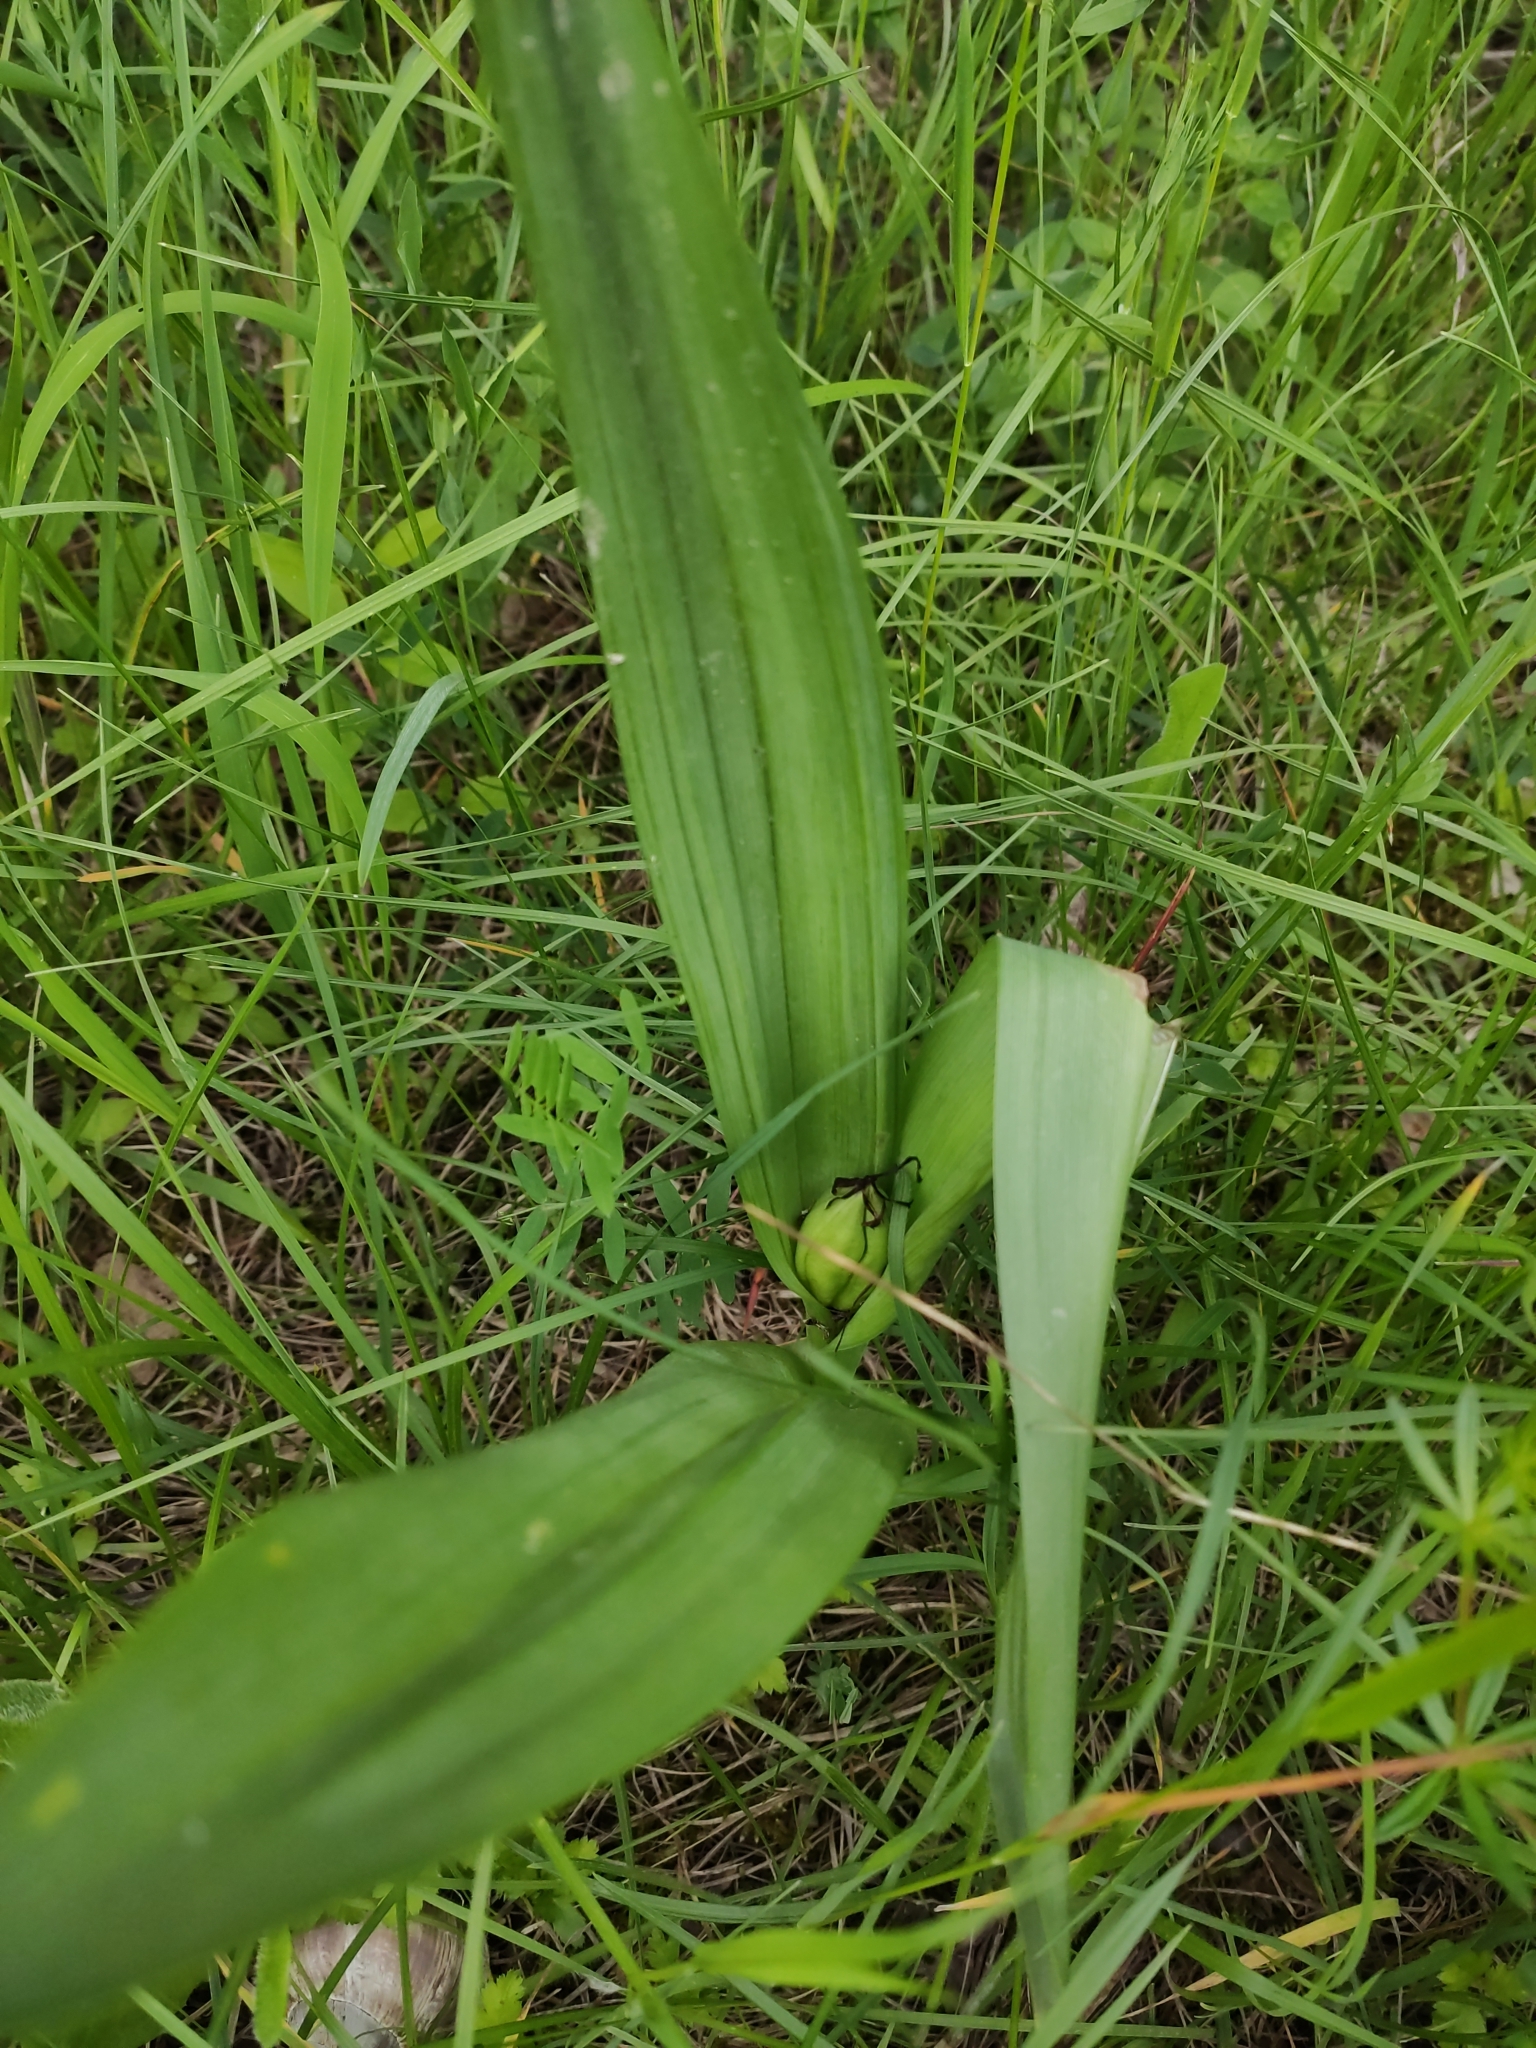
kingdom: Plantae
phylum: Tracheophyta
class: Liliopsida
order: Liliales
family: Colchicaceae
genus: Colchicum
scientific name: Colchicum autumnale
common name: Autumn crocus
